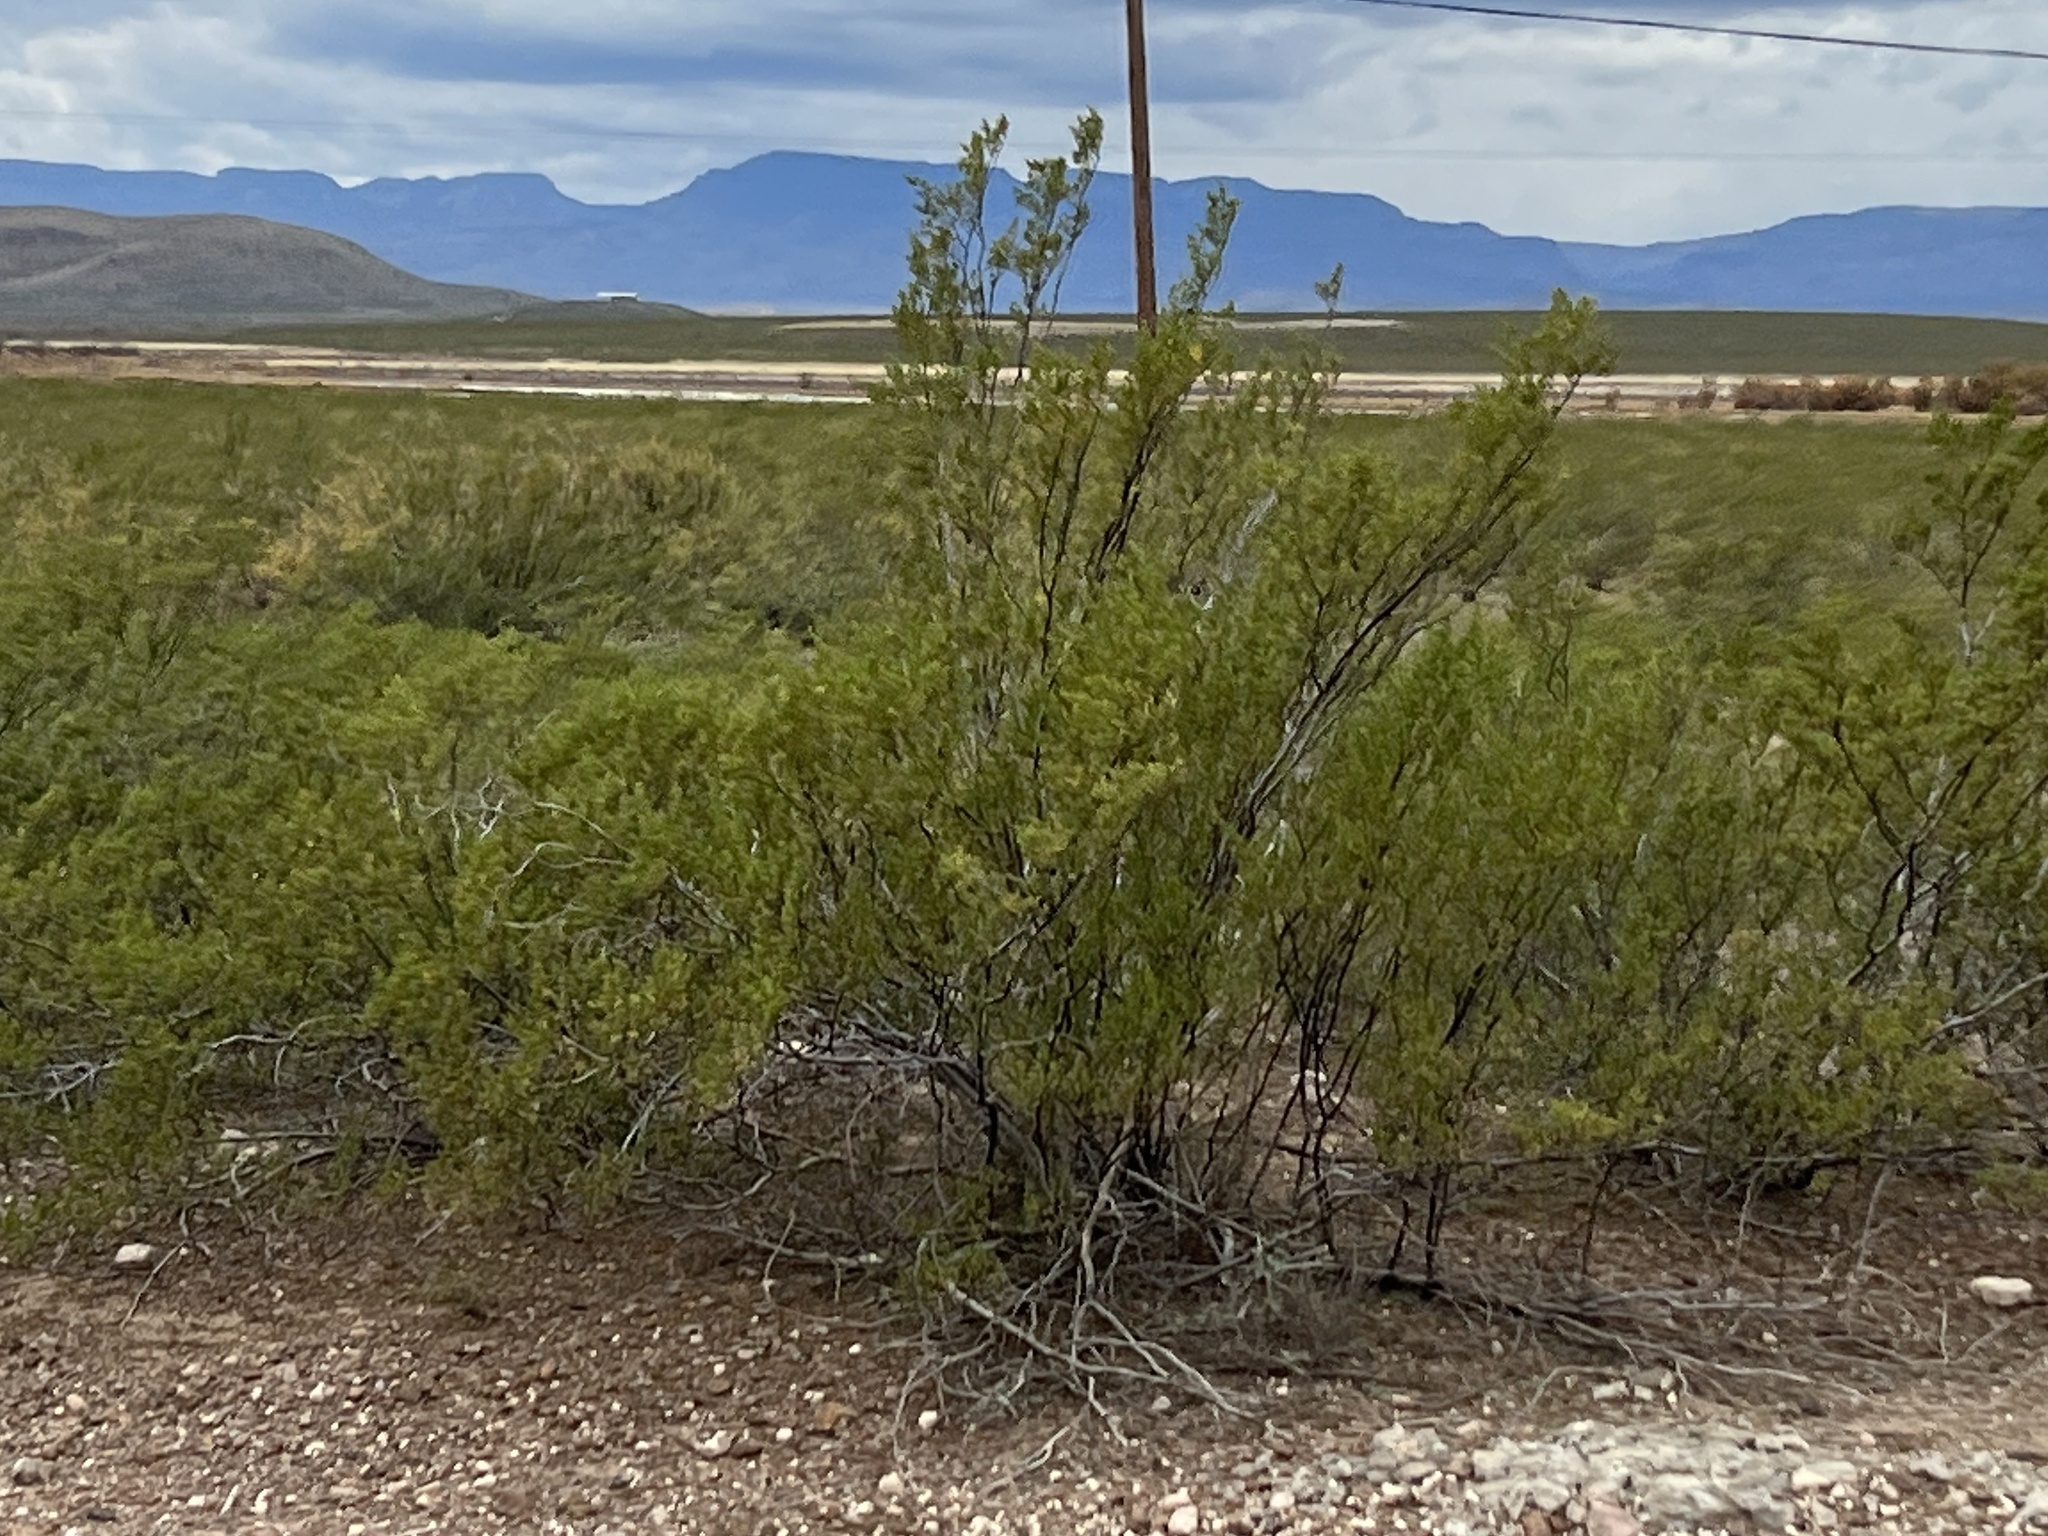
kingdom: Plantae
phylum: Tracheophyta
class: Magnoliopsida
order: Zygophyllales
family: Zygophyllaceae
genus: Larrea
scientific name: Larrea tridentata
